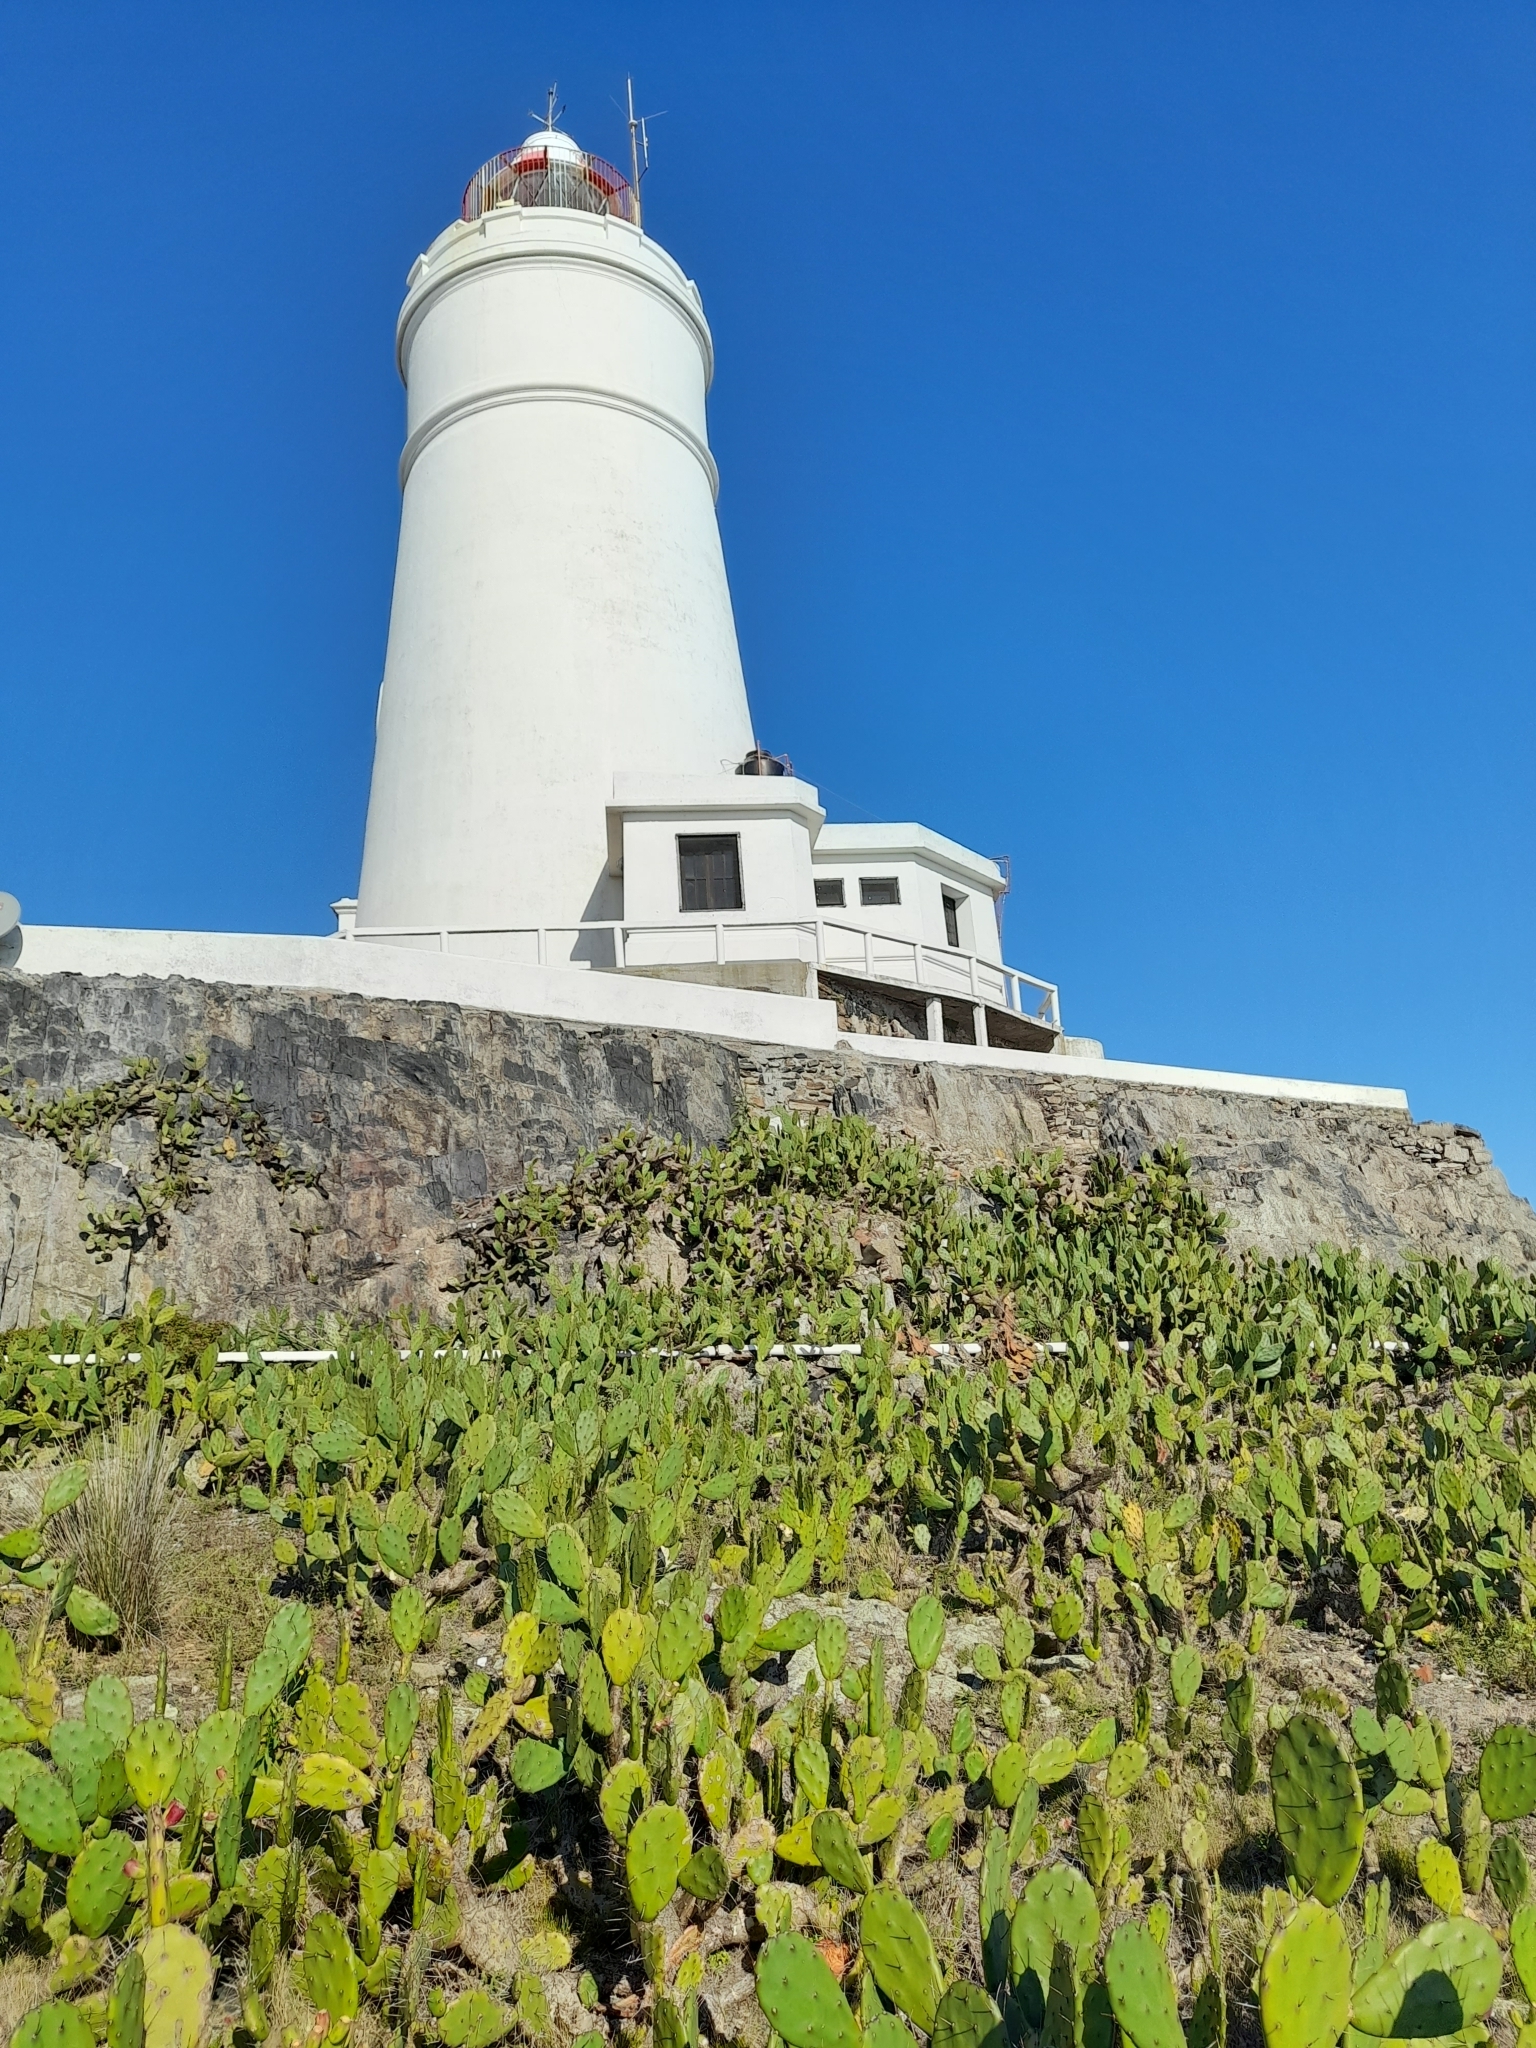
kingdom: Plantae
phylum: Tracheophyta
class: Magnoliopsida
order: Caryophyllales
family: Cactaceae
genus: Opuntia
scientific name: Opuntia elata
